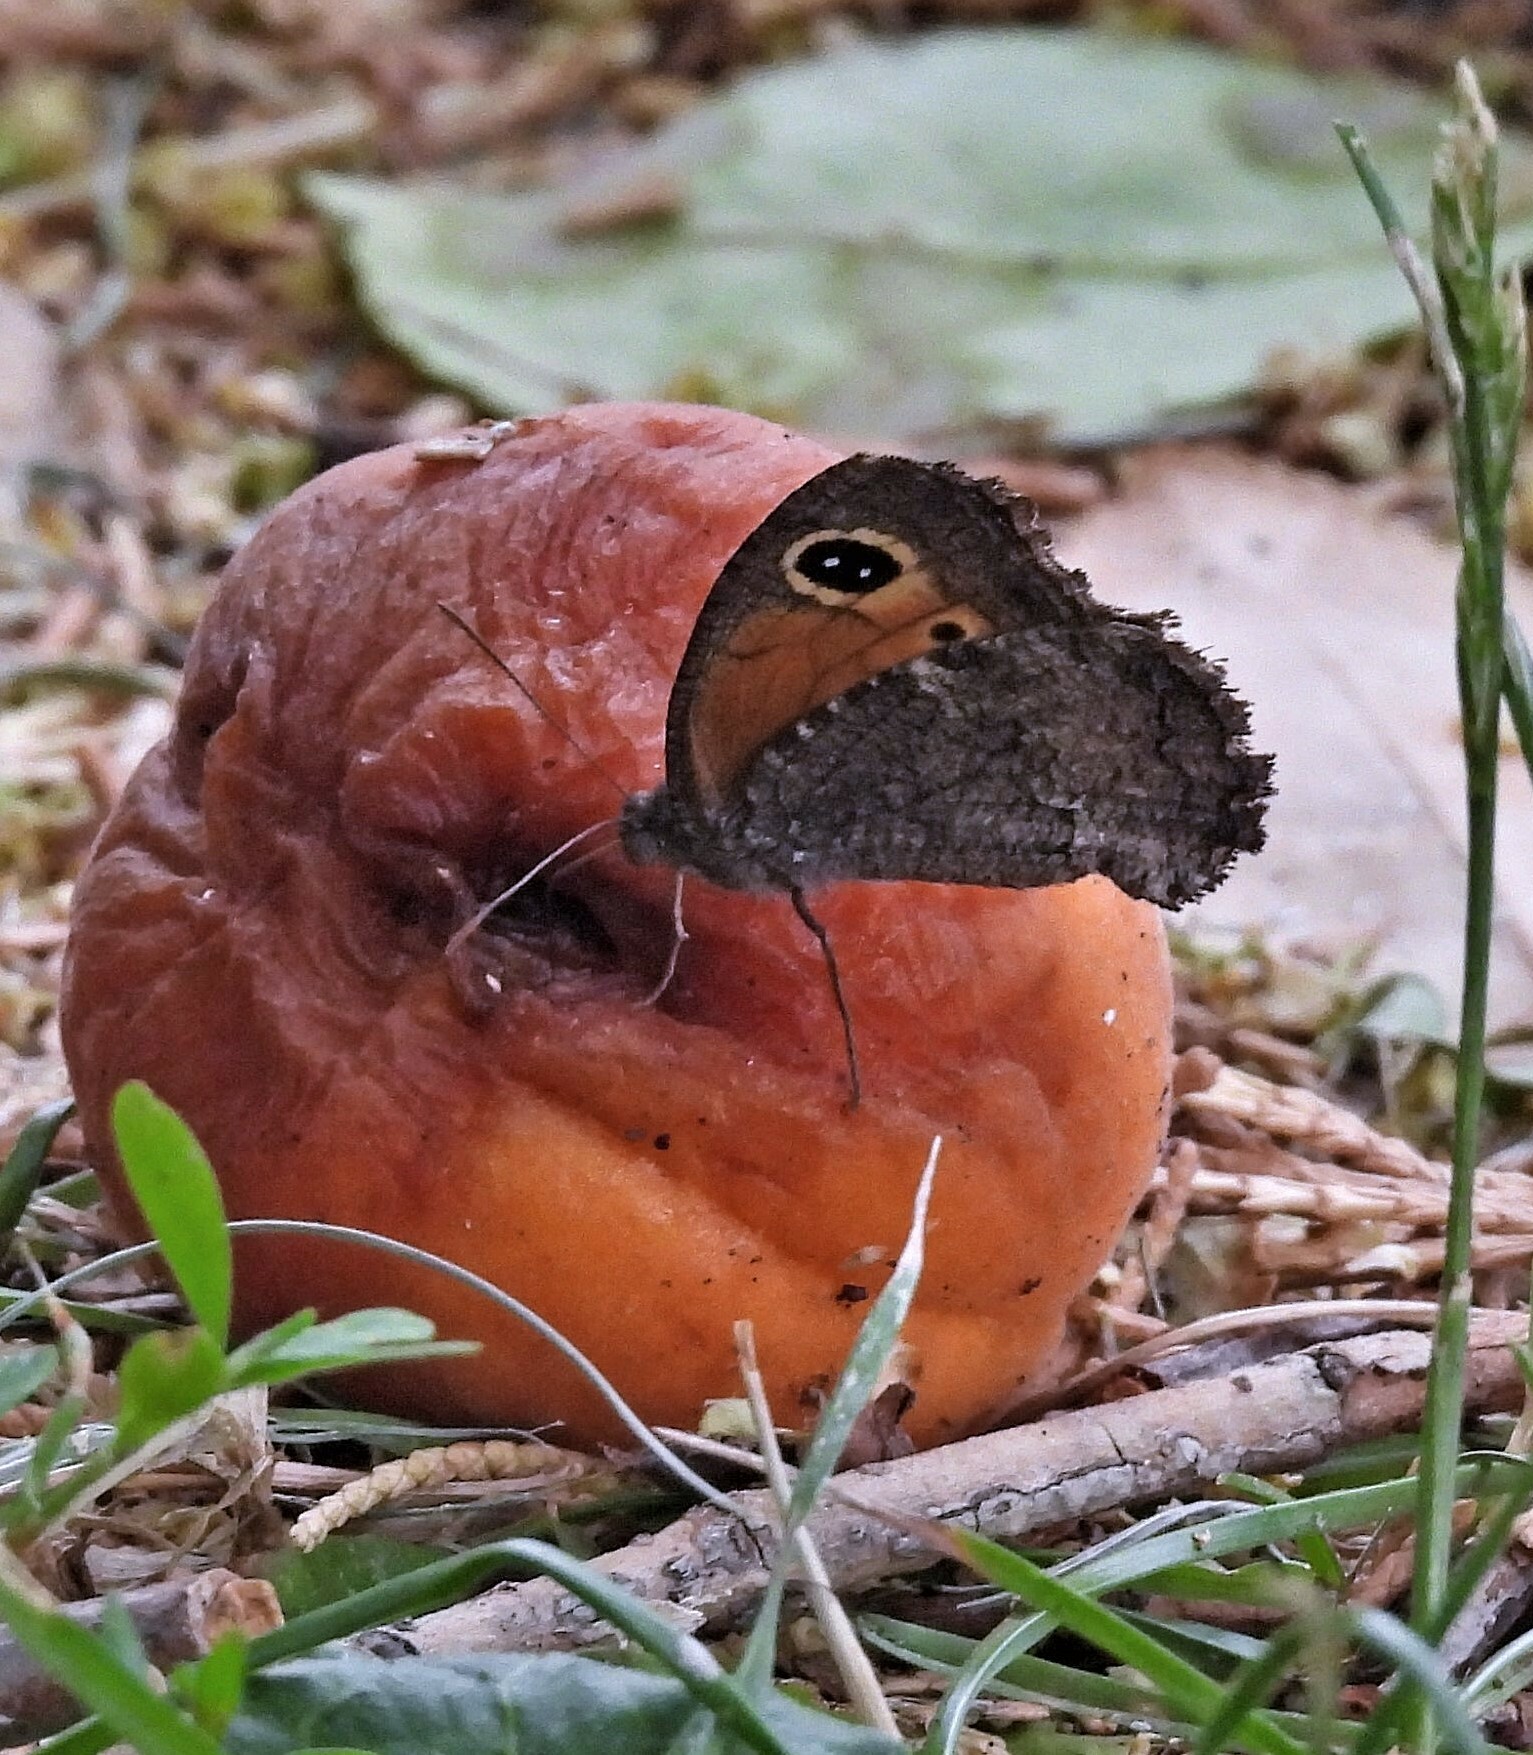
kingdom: Animalia
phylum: Arthropoda
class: Insecta
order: Lepidoptera
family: Nymphalidae
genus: Haywardella
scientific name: Haywardella edmondsii
